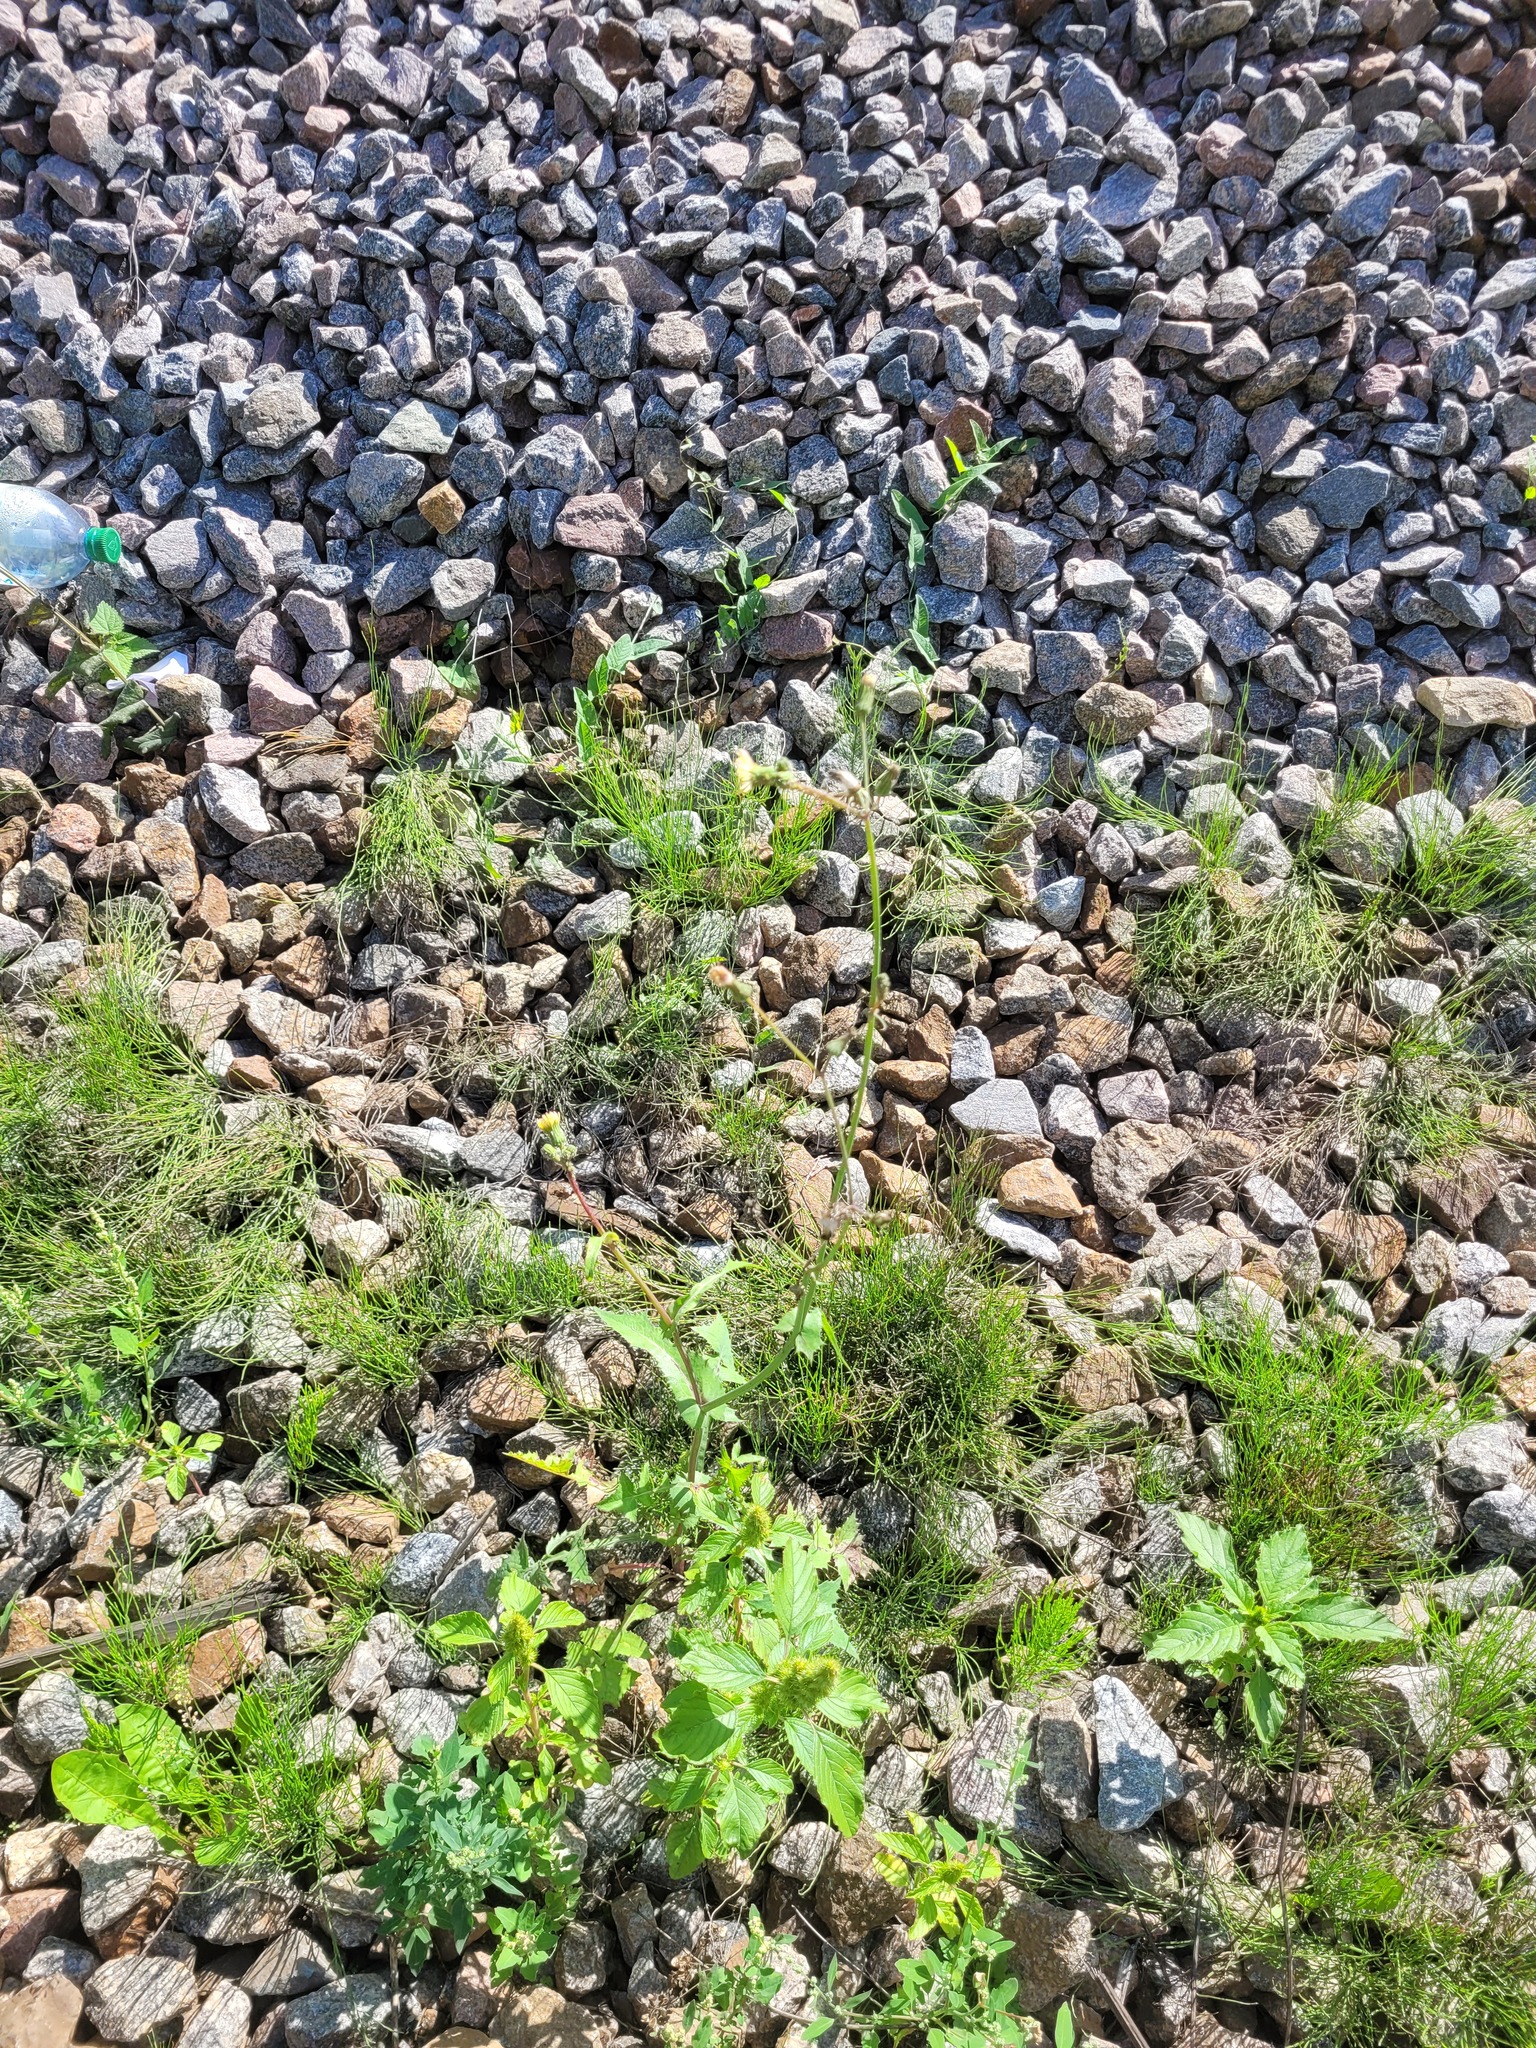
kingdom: Plantae
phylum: Tracheophyta
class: Magnoliopsida
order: Asterales
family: Asteraceae
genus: Sonchus
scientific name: Sonchus oleraceus
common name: Common sowthistle
